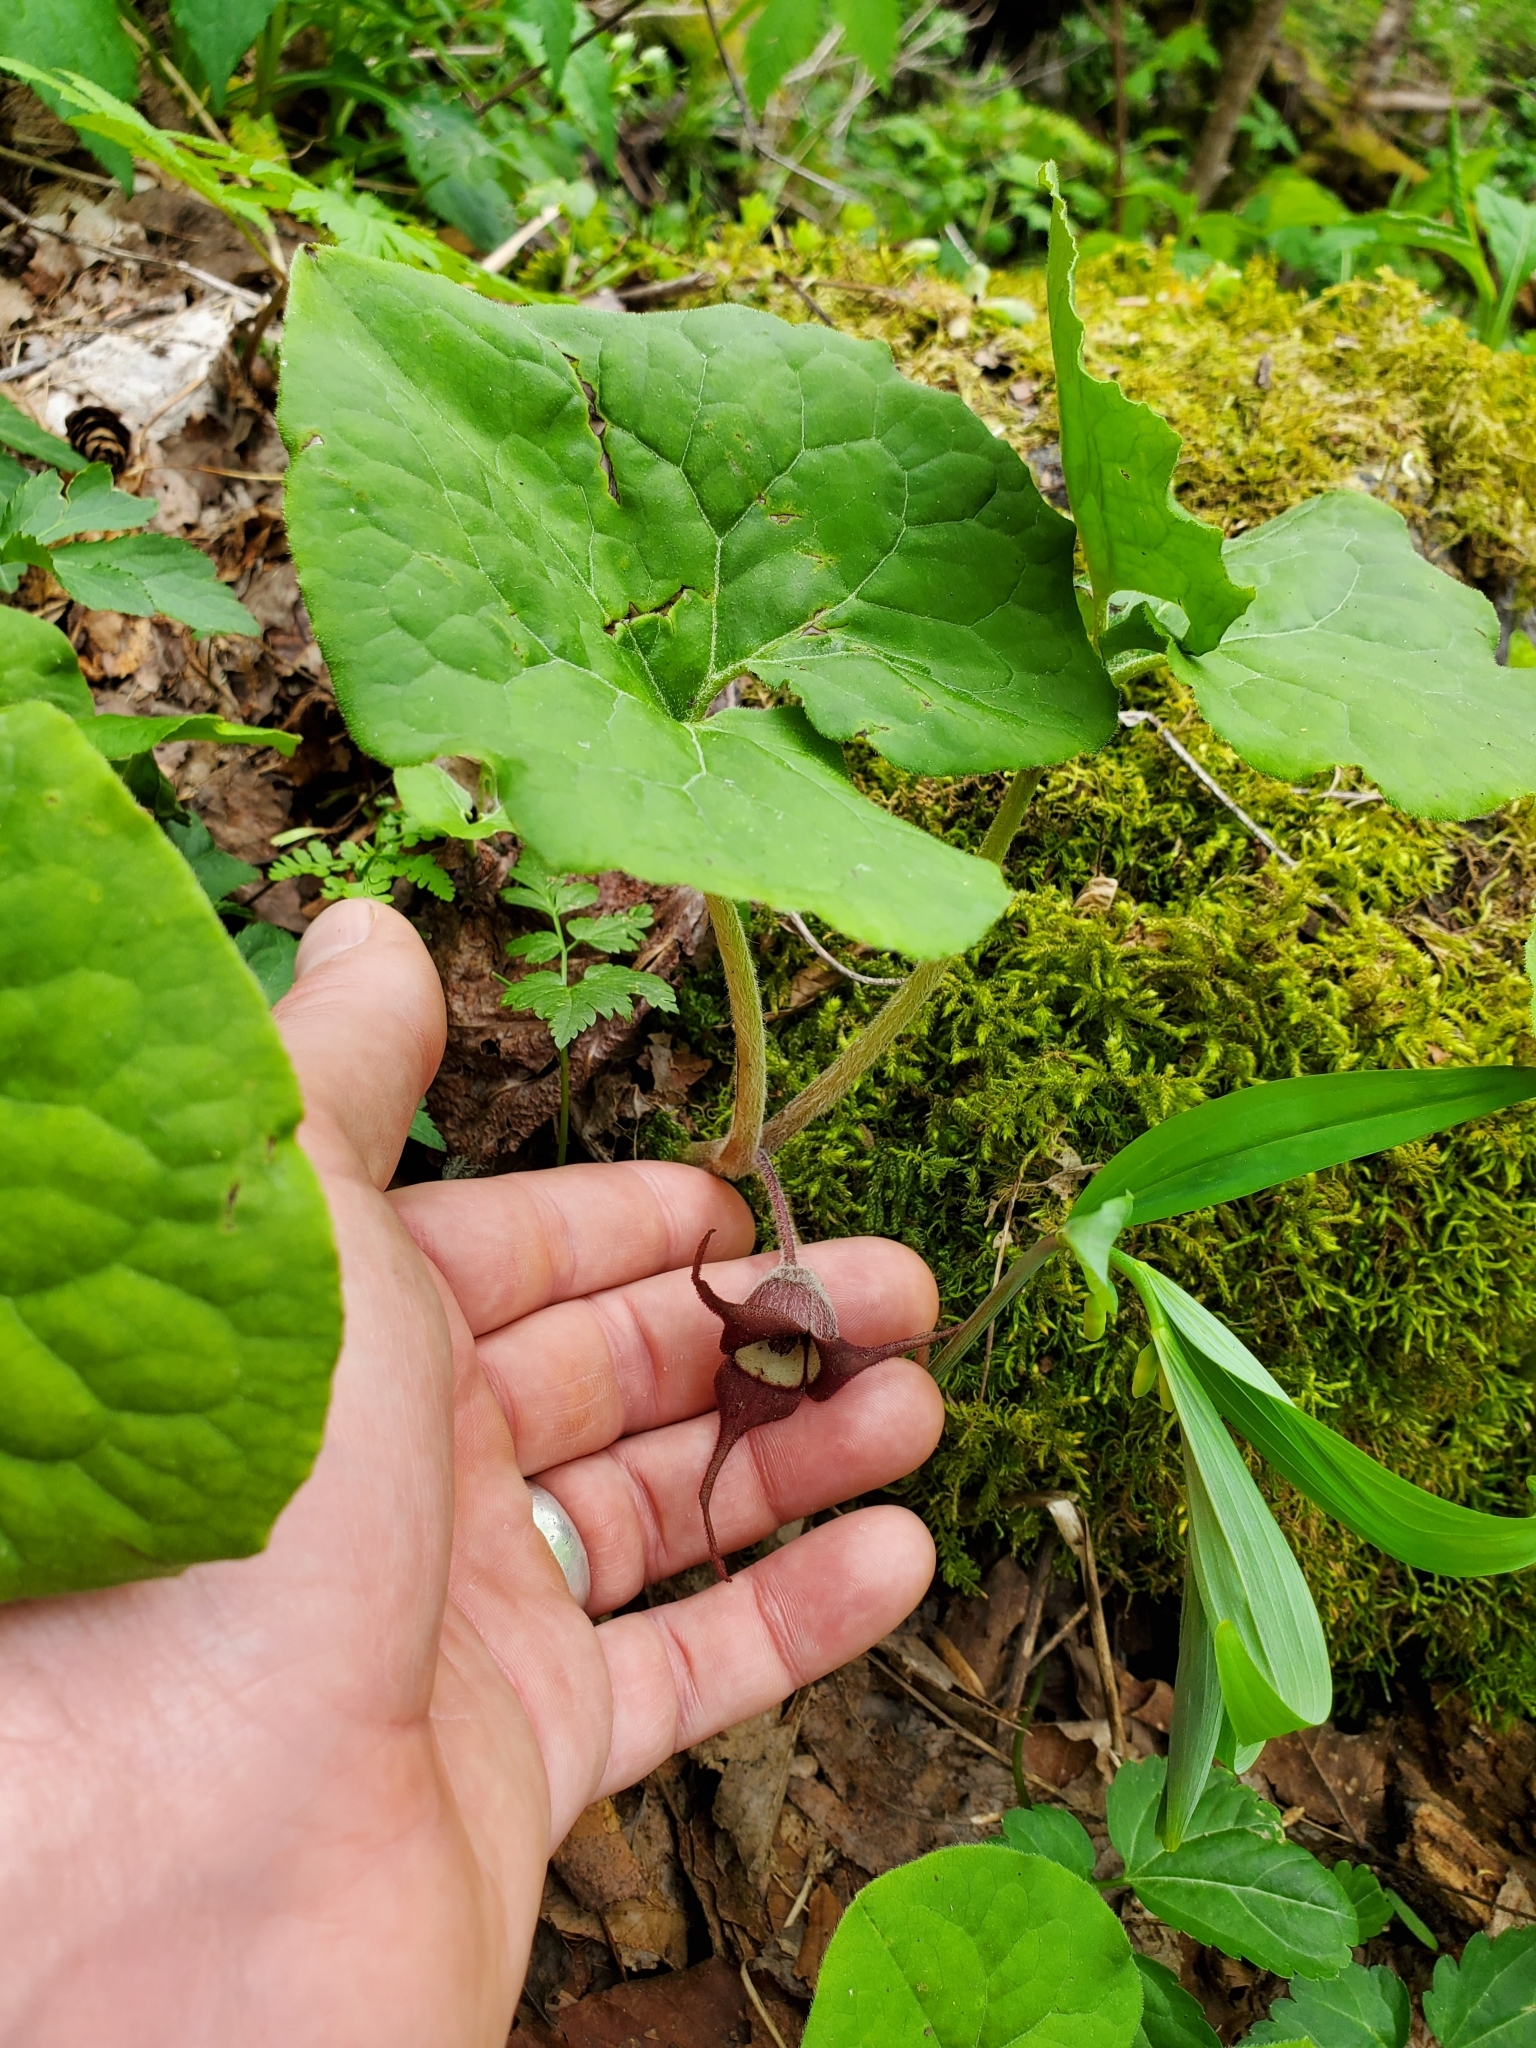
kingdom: Plantae
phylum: Tracheophyta
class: Magnoliopsida
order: Piperales
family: Aristolochiaceae
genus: Asarum
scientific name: Asarum canadense
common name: Wild ginger
